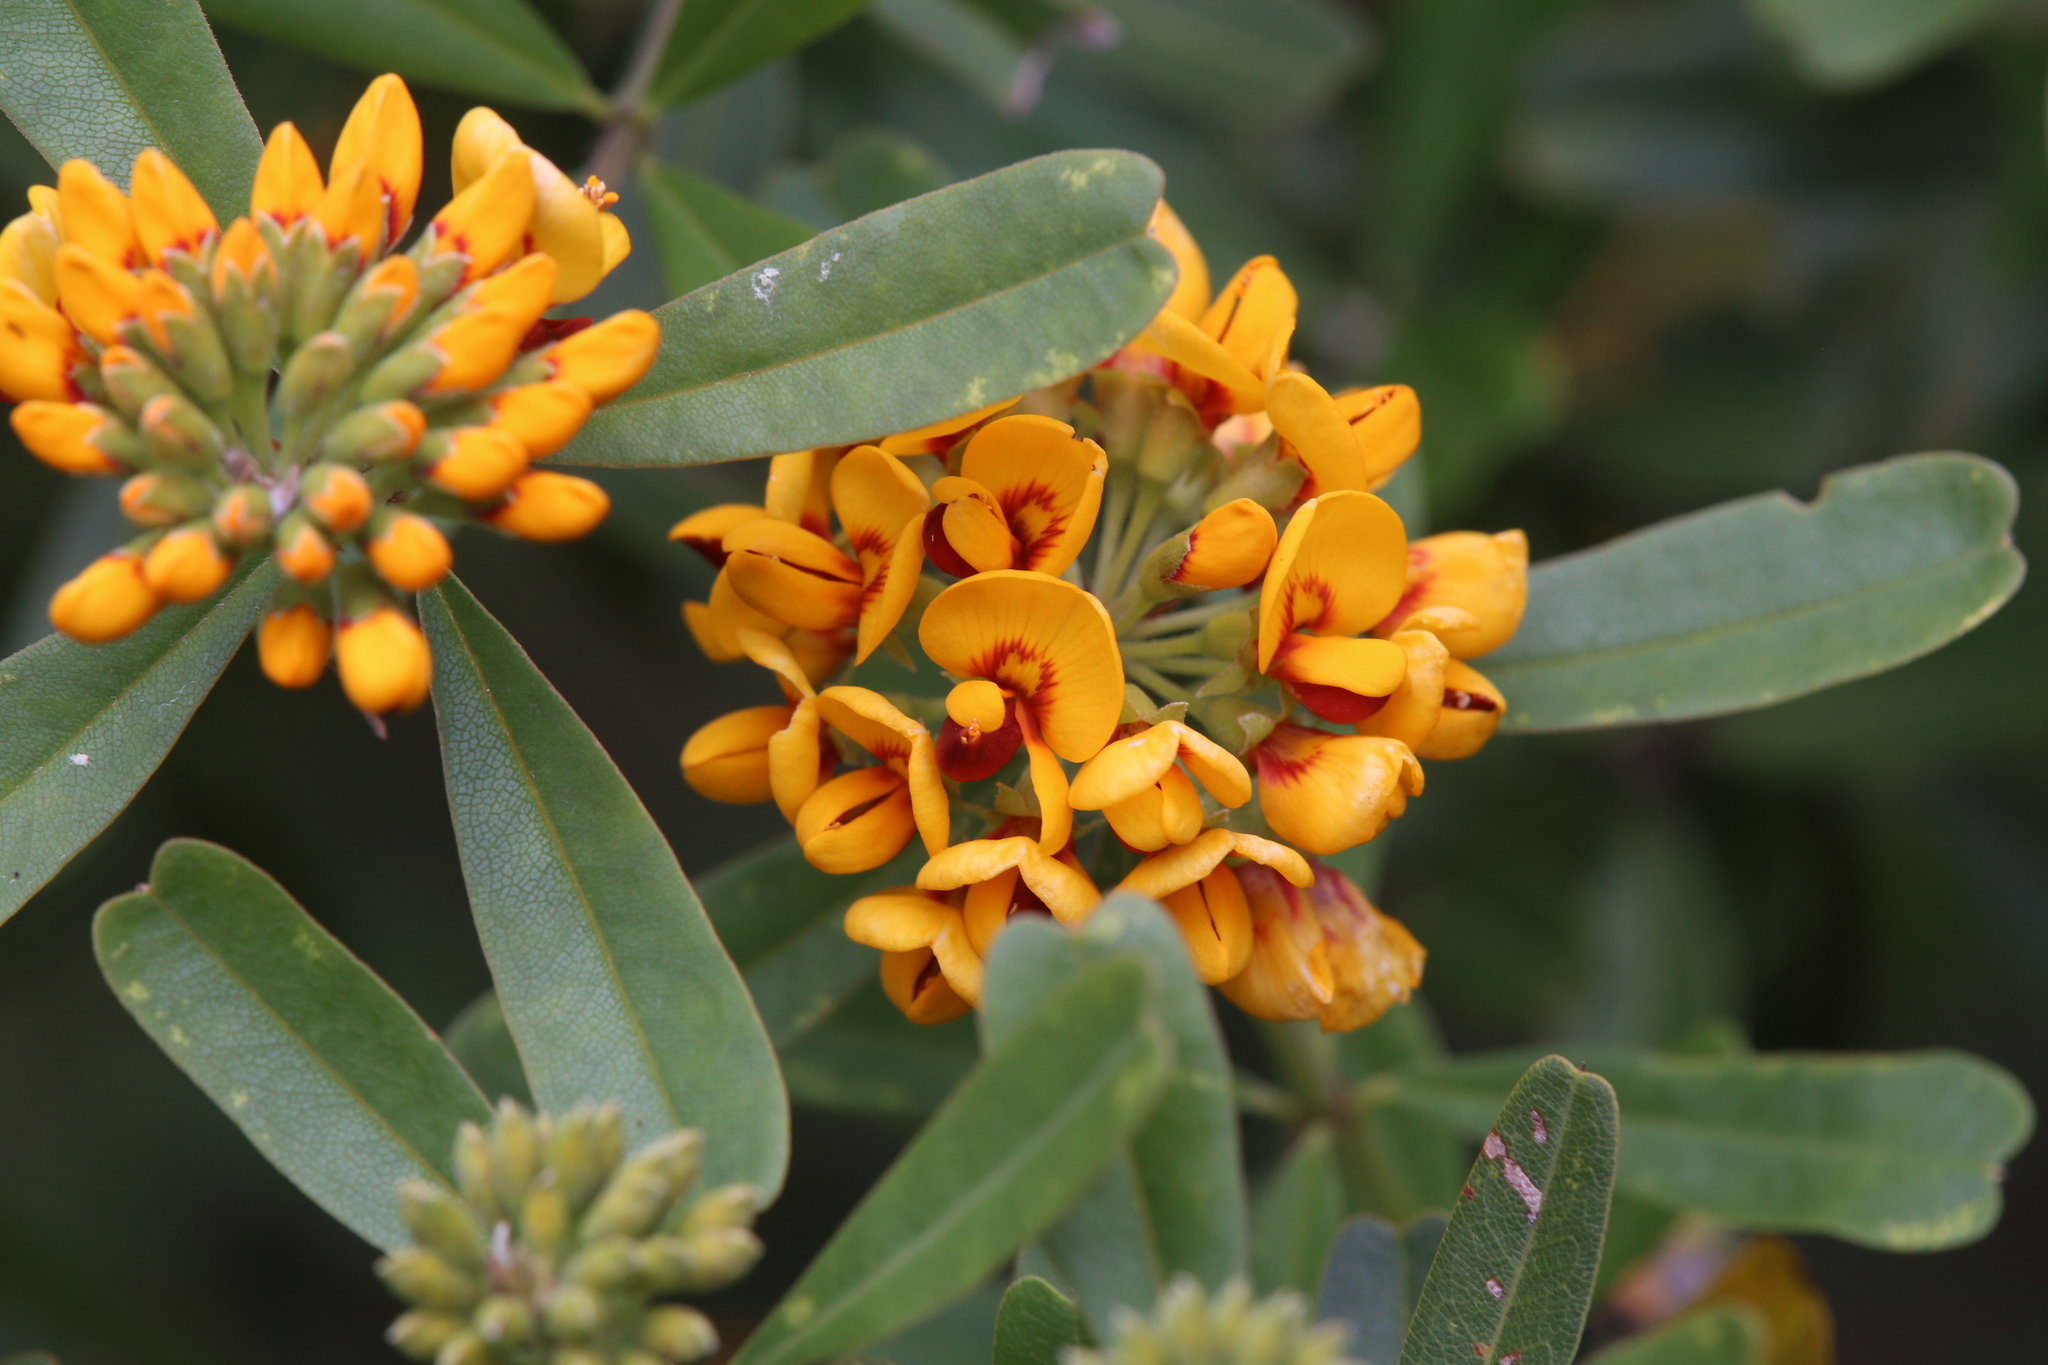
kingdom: Plantae
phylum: Tracheophyta
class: Magnoliopsida
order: Fabales
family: Fabaceae
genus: Gastrolobium
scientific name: Gastrolobium bilobum
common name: Heart-leaf poisonbush
